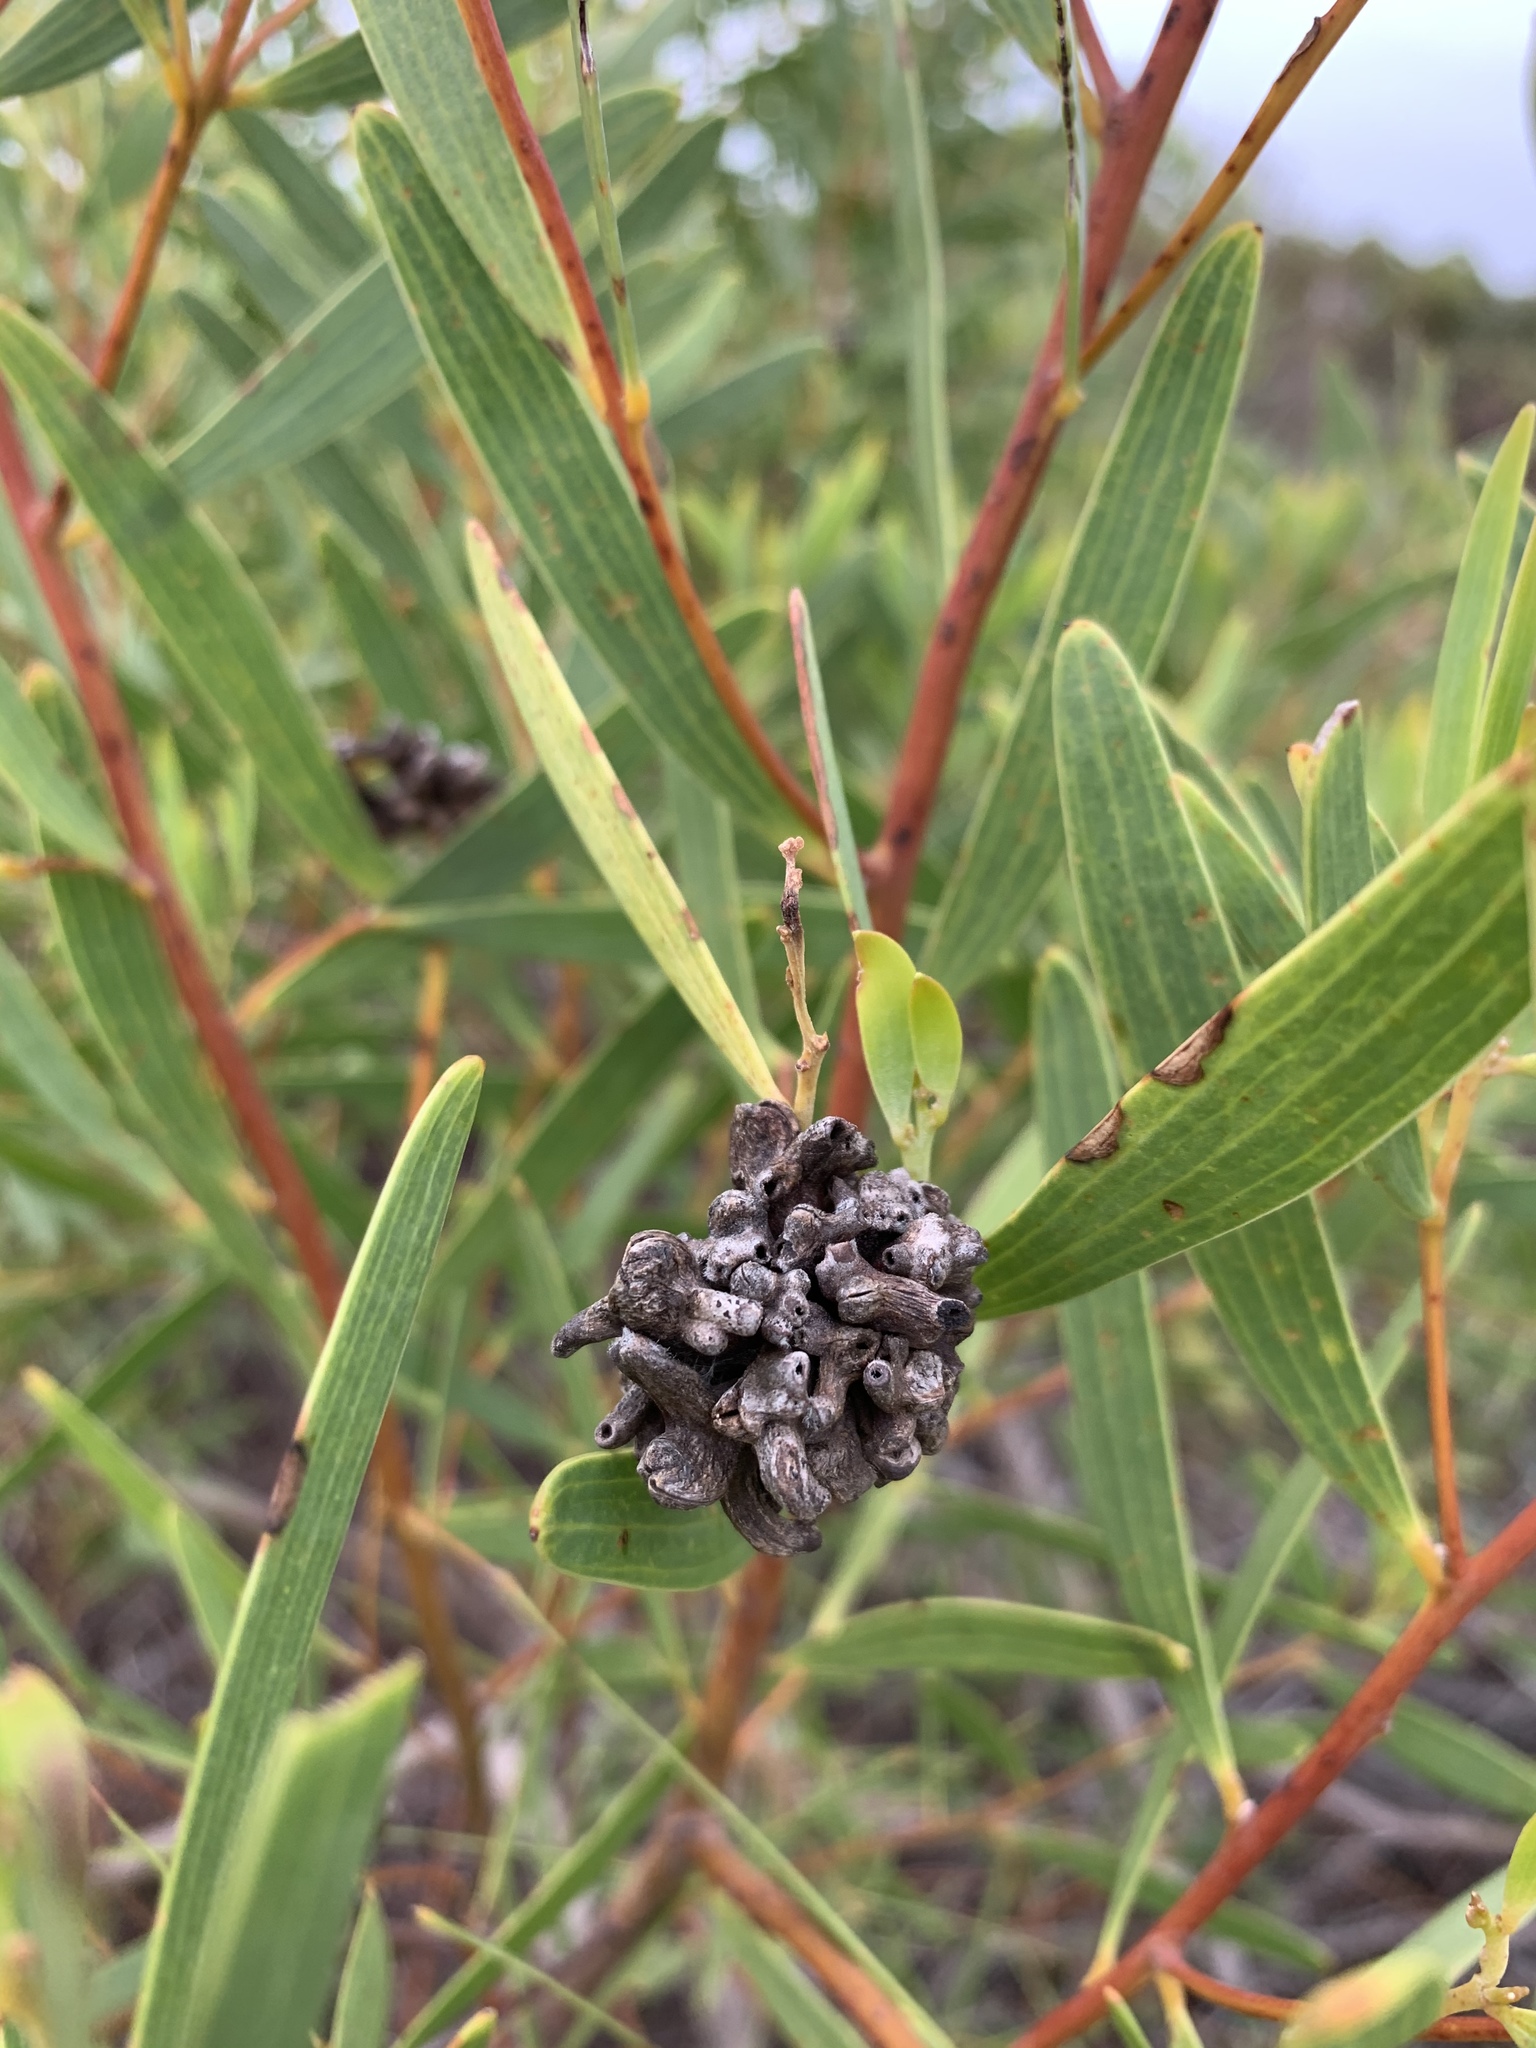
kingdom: Animalia
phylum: Arthropoda
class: Insecta
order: Diptera
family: Cecidomyiidae
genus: Dasineura
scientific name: Dasineura dielsi
